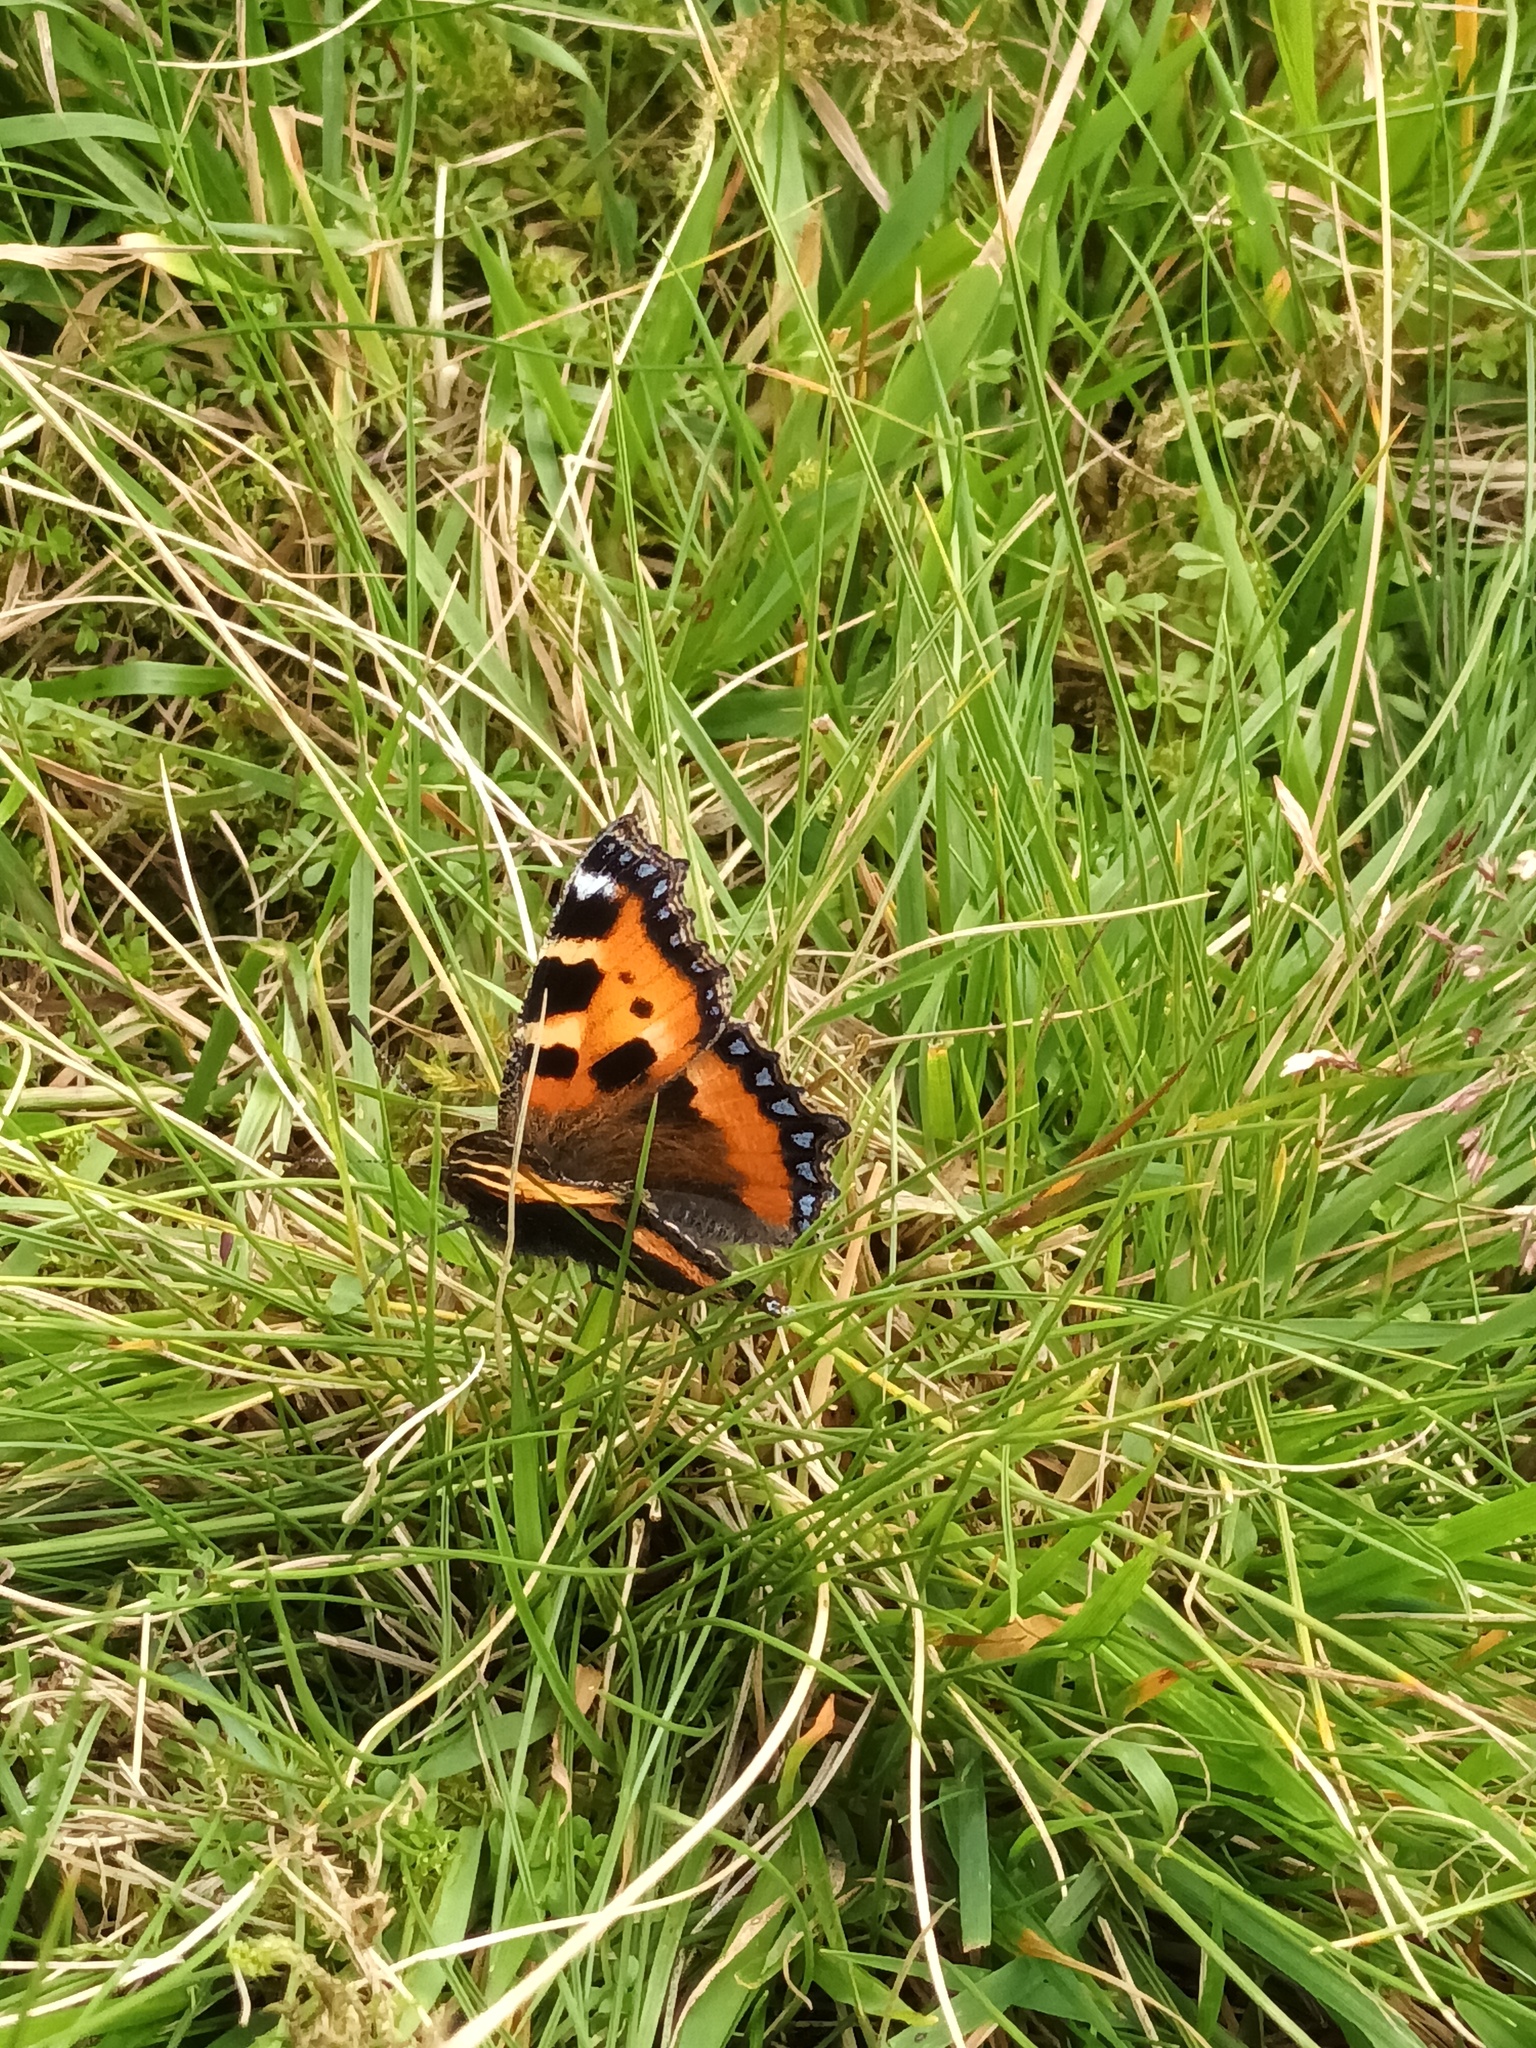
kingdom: Animalia
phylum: Arthropoda
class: Insecta
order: Lepidoptera
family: Nymphalidae
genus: Aglais
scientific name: Aglais urticae
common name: Small tortoiseshell
